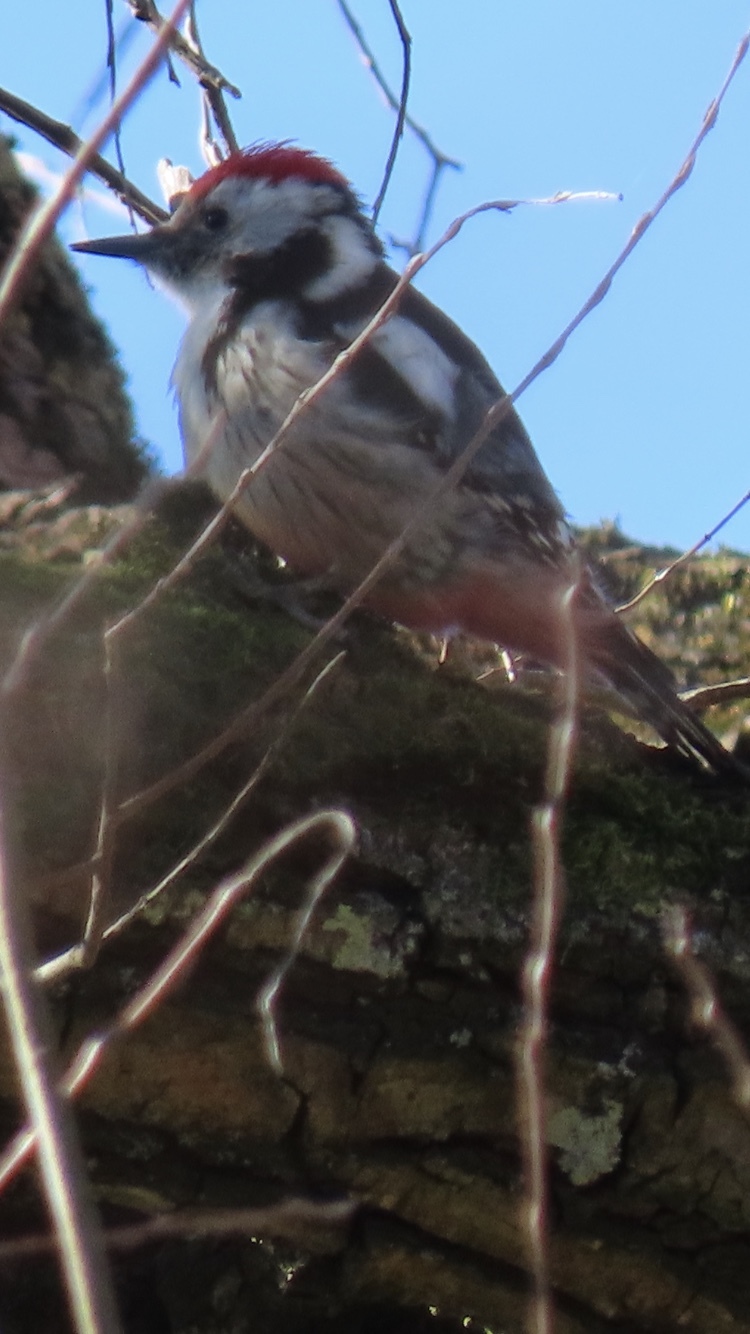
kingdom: Animalia
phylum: Chordata
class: Aves
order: Piciformes
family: Picidae
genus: Dendrocoptes
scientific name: Dendrocoptes medius
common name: Middle spotted woodpecker
